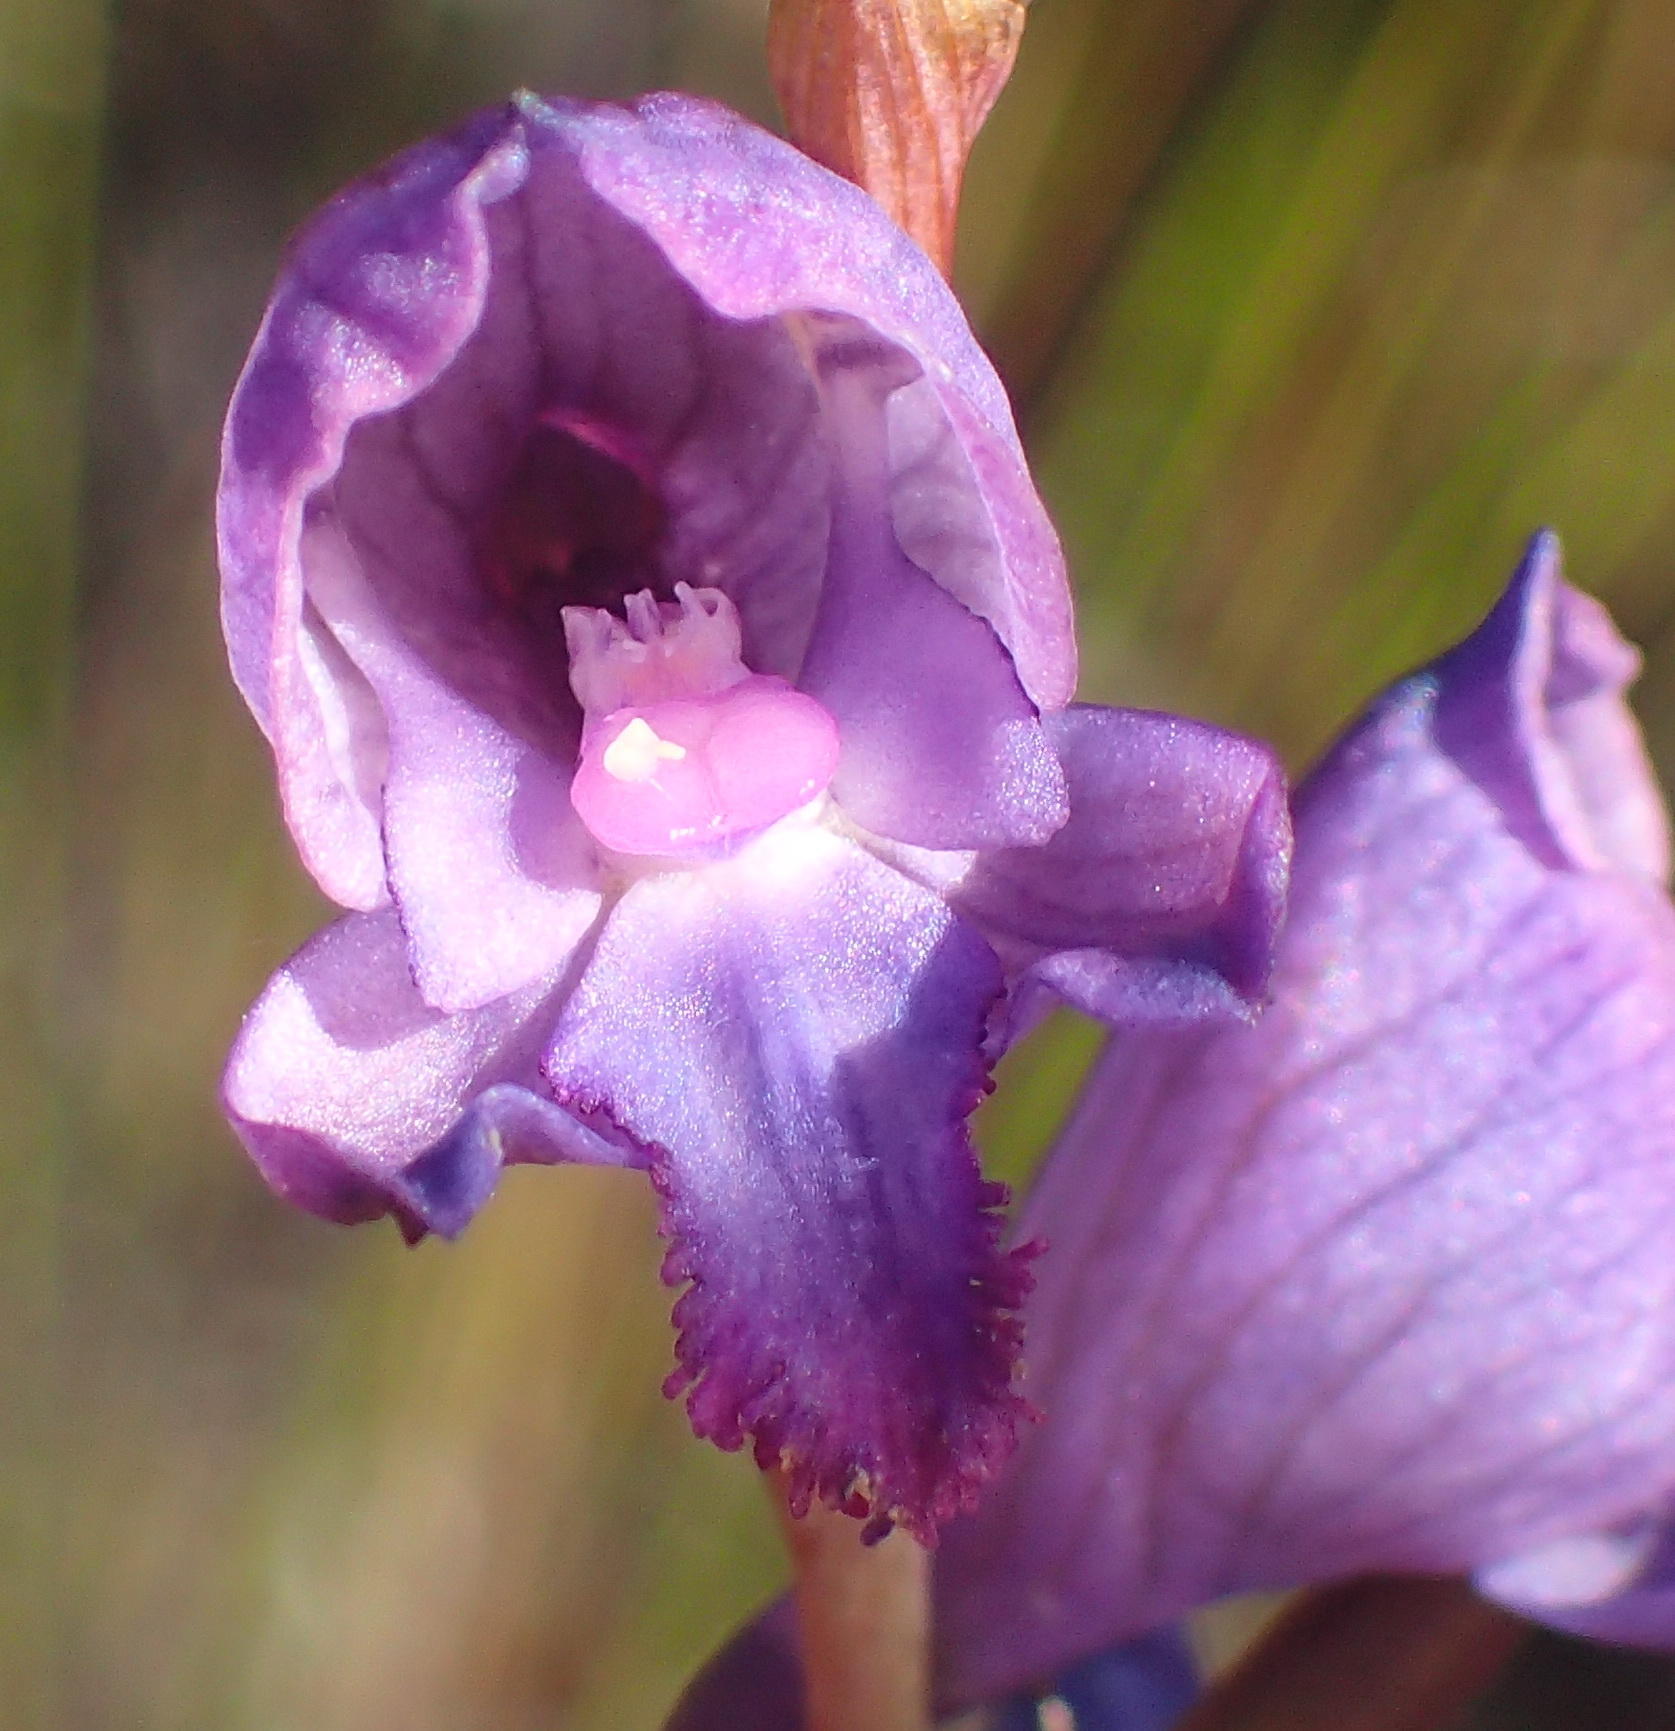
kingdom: Plantae
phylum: Tracheophyta
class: Liliopsida
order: Asparagales
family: Orchidaceae
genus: Disa
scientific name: Disa hians
